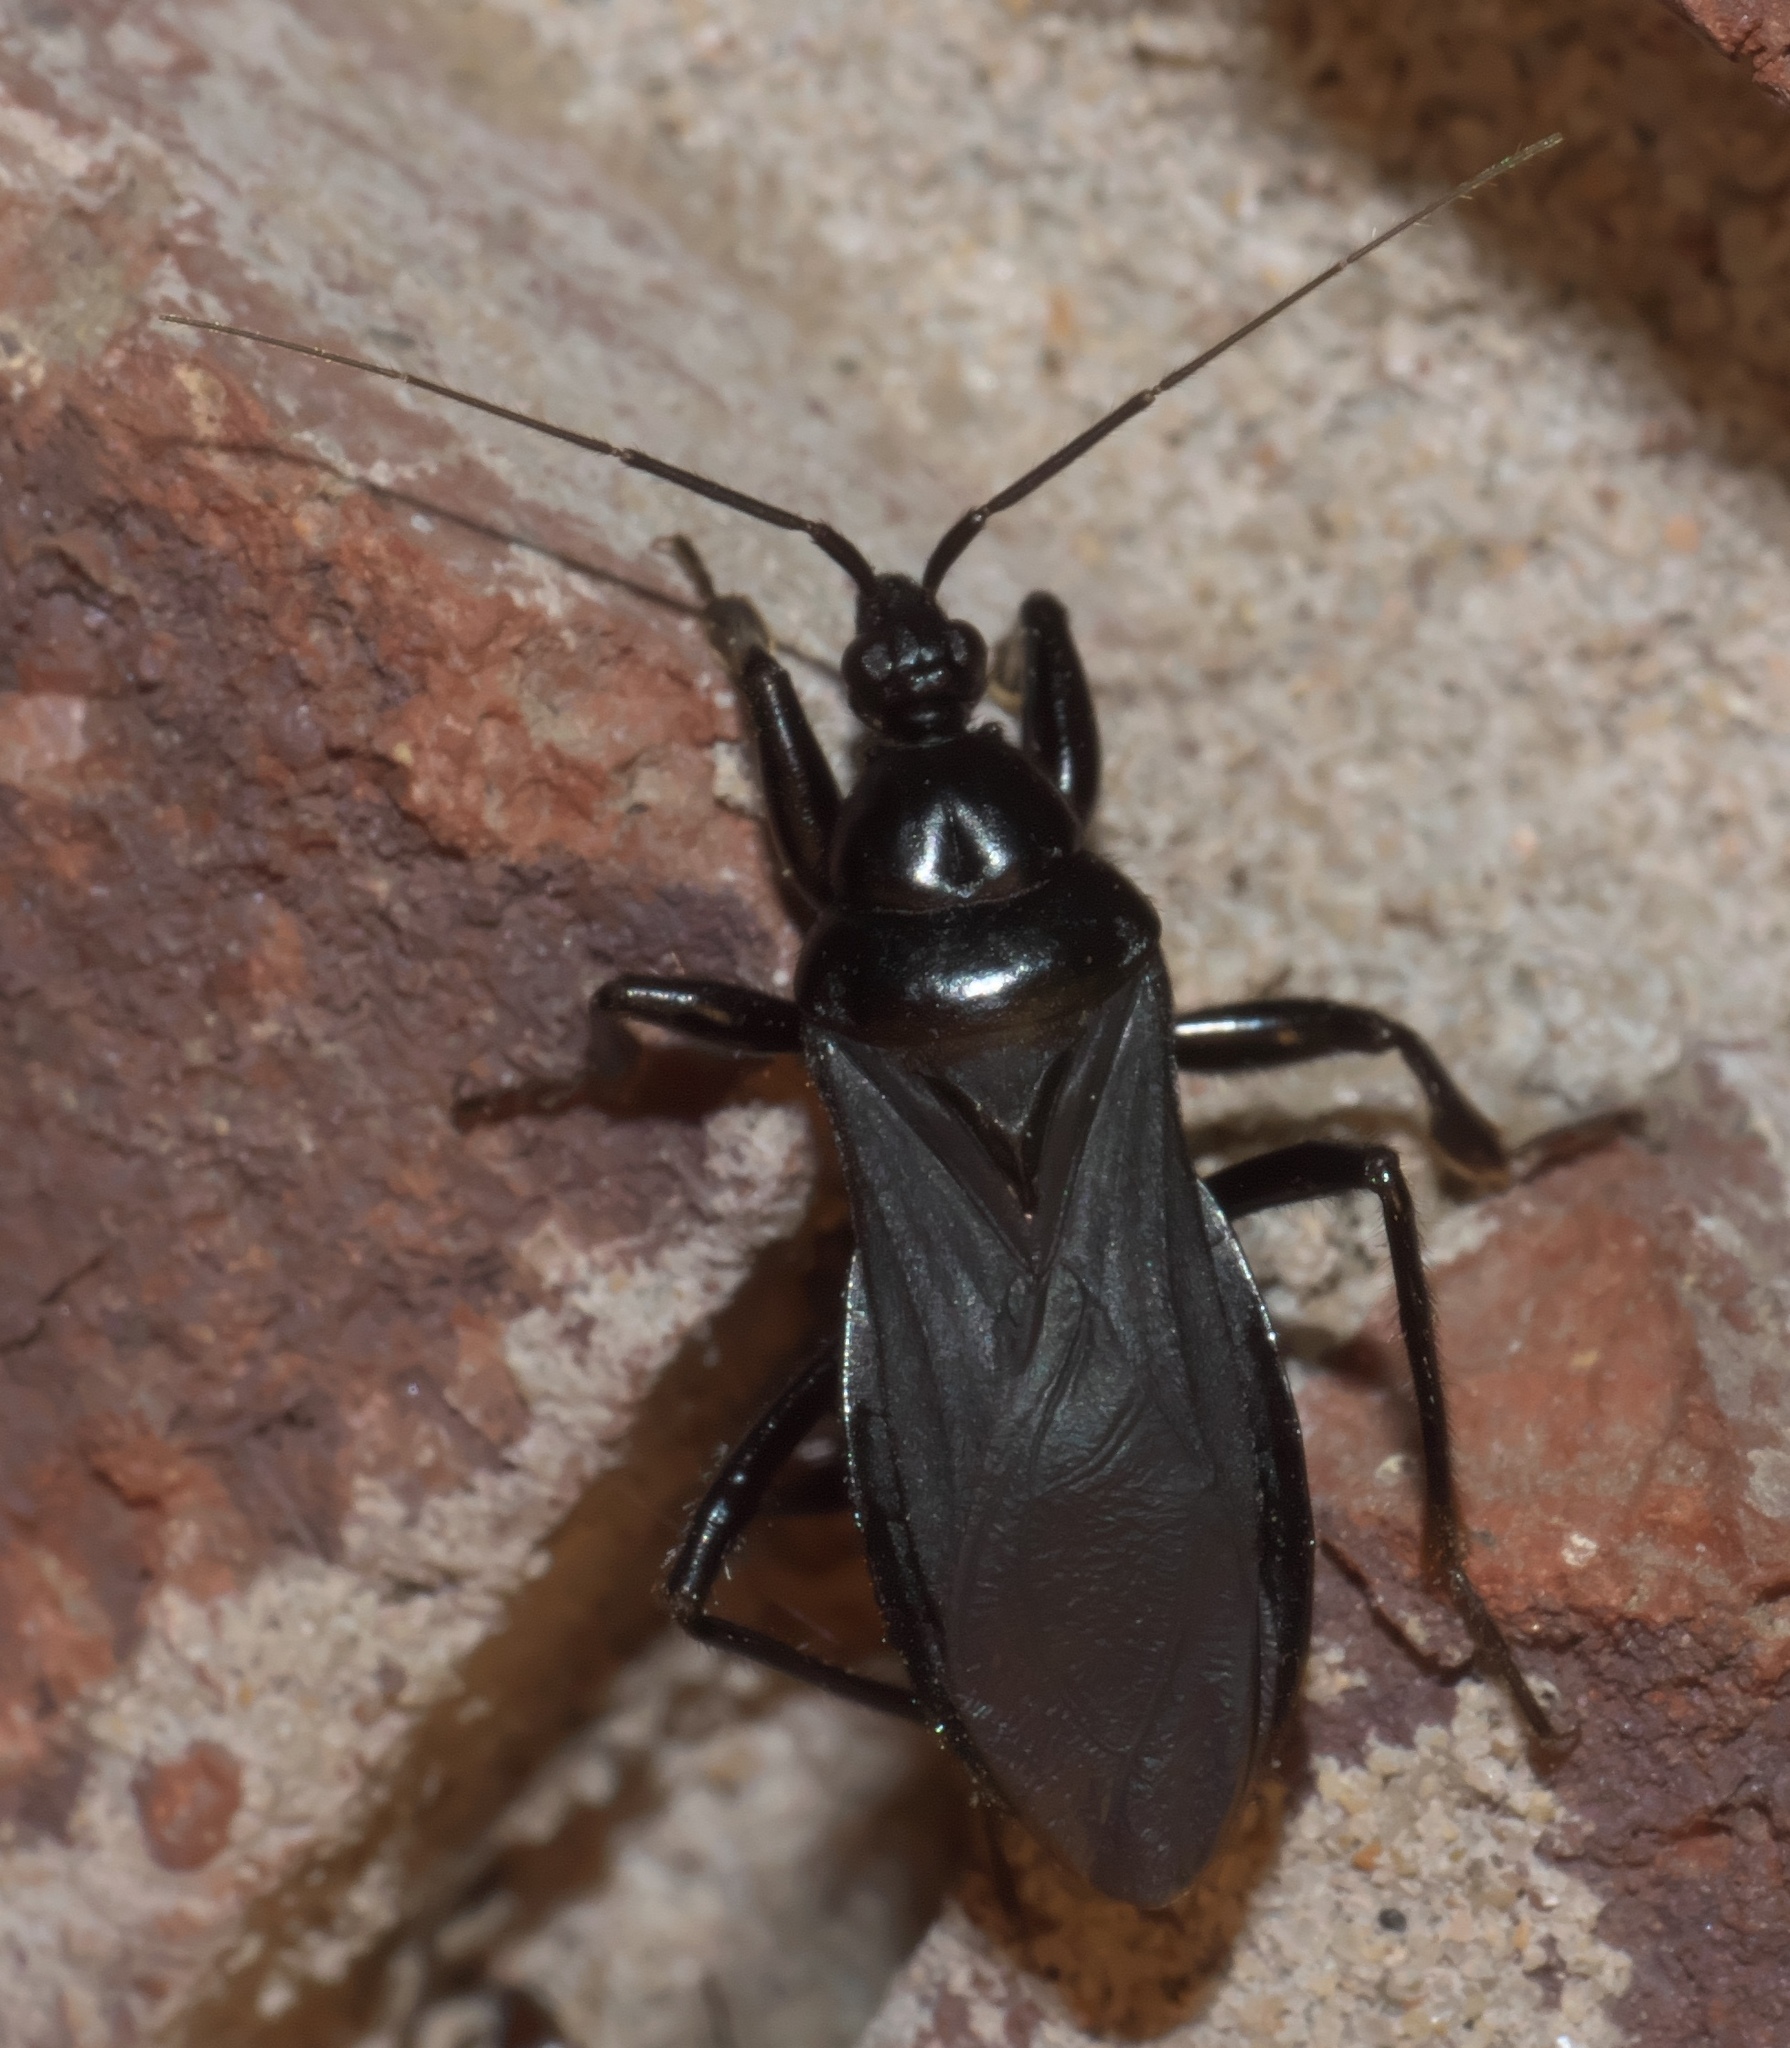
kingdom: Animalia
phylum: Arthropoda
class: Insecta
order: Hemiptera
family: Reduviidae
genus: Melanolestes
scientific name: Melanolestes picipes
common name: Assassin bug
